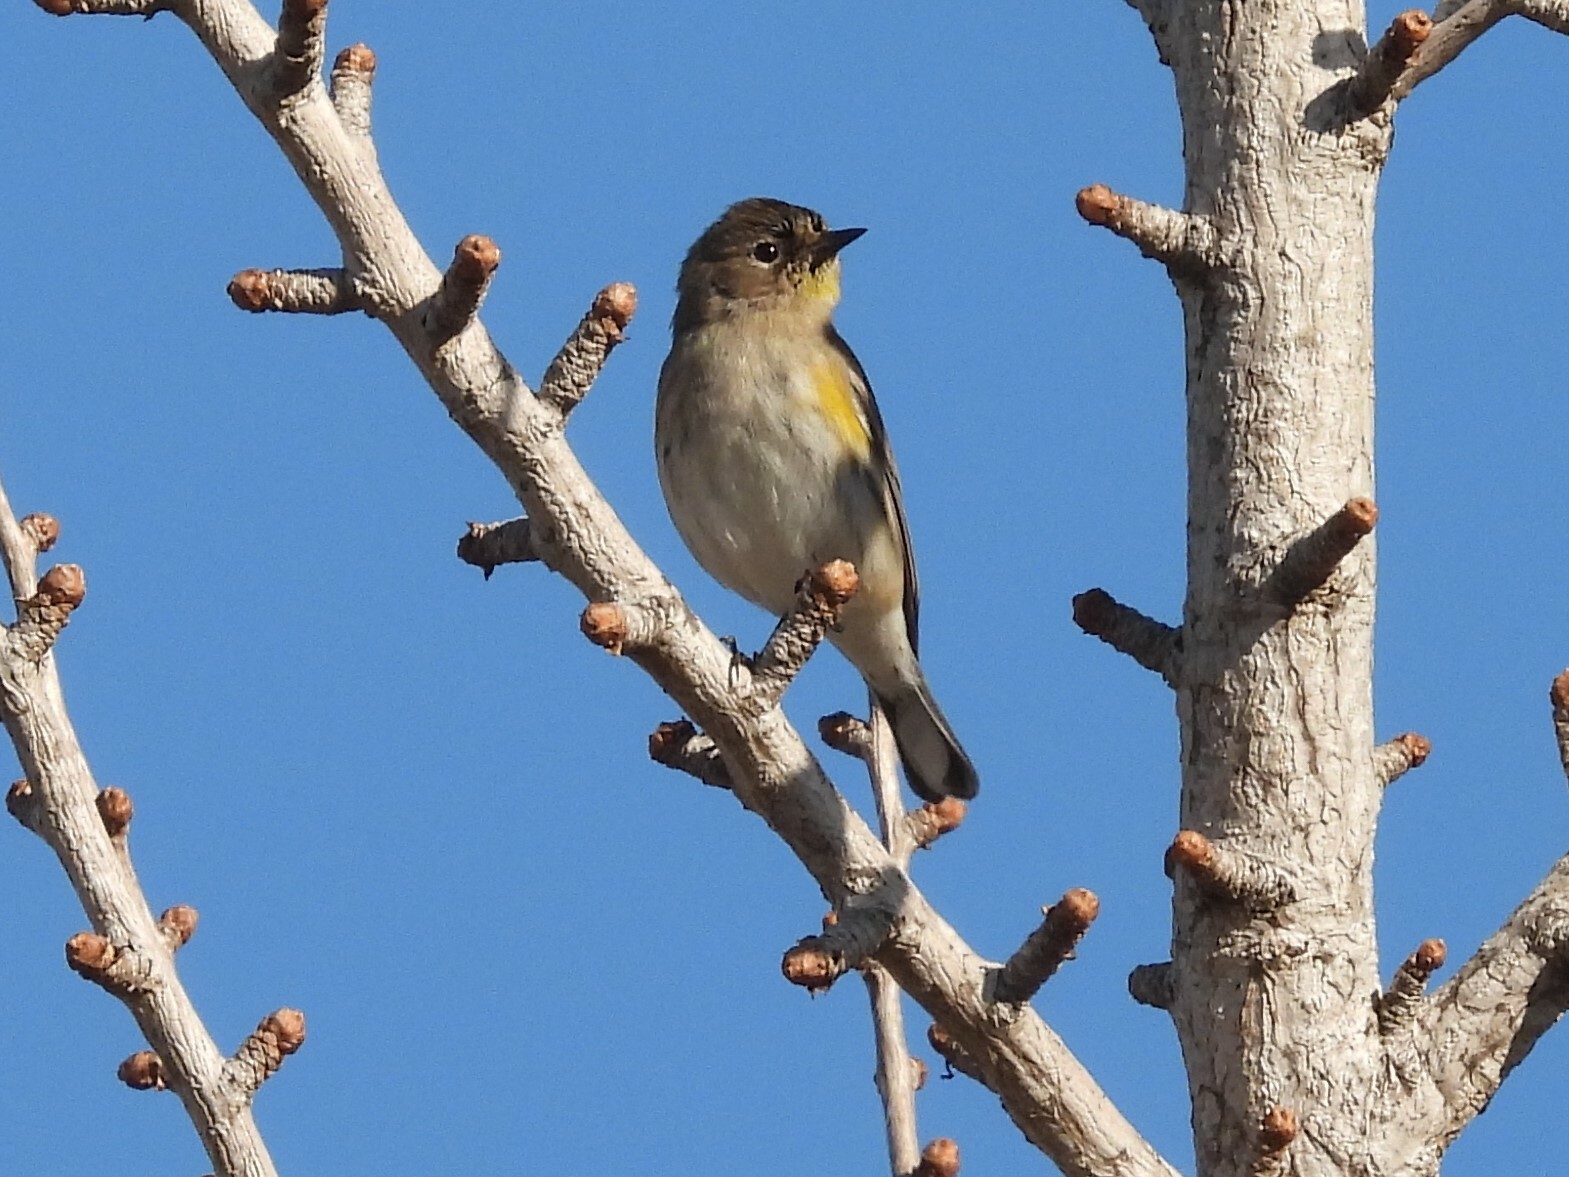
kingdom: Animalia
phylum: Chordata
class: Aves
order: Passeriformes
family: Parulidae
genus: Setophaga
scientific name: Setophaga coronata
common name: Myrtle warbler
